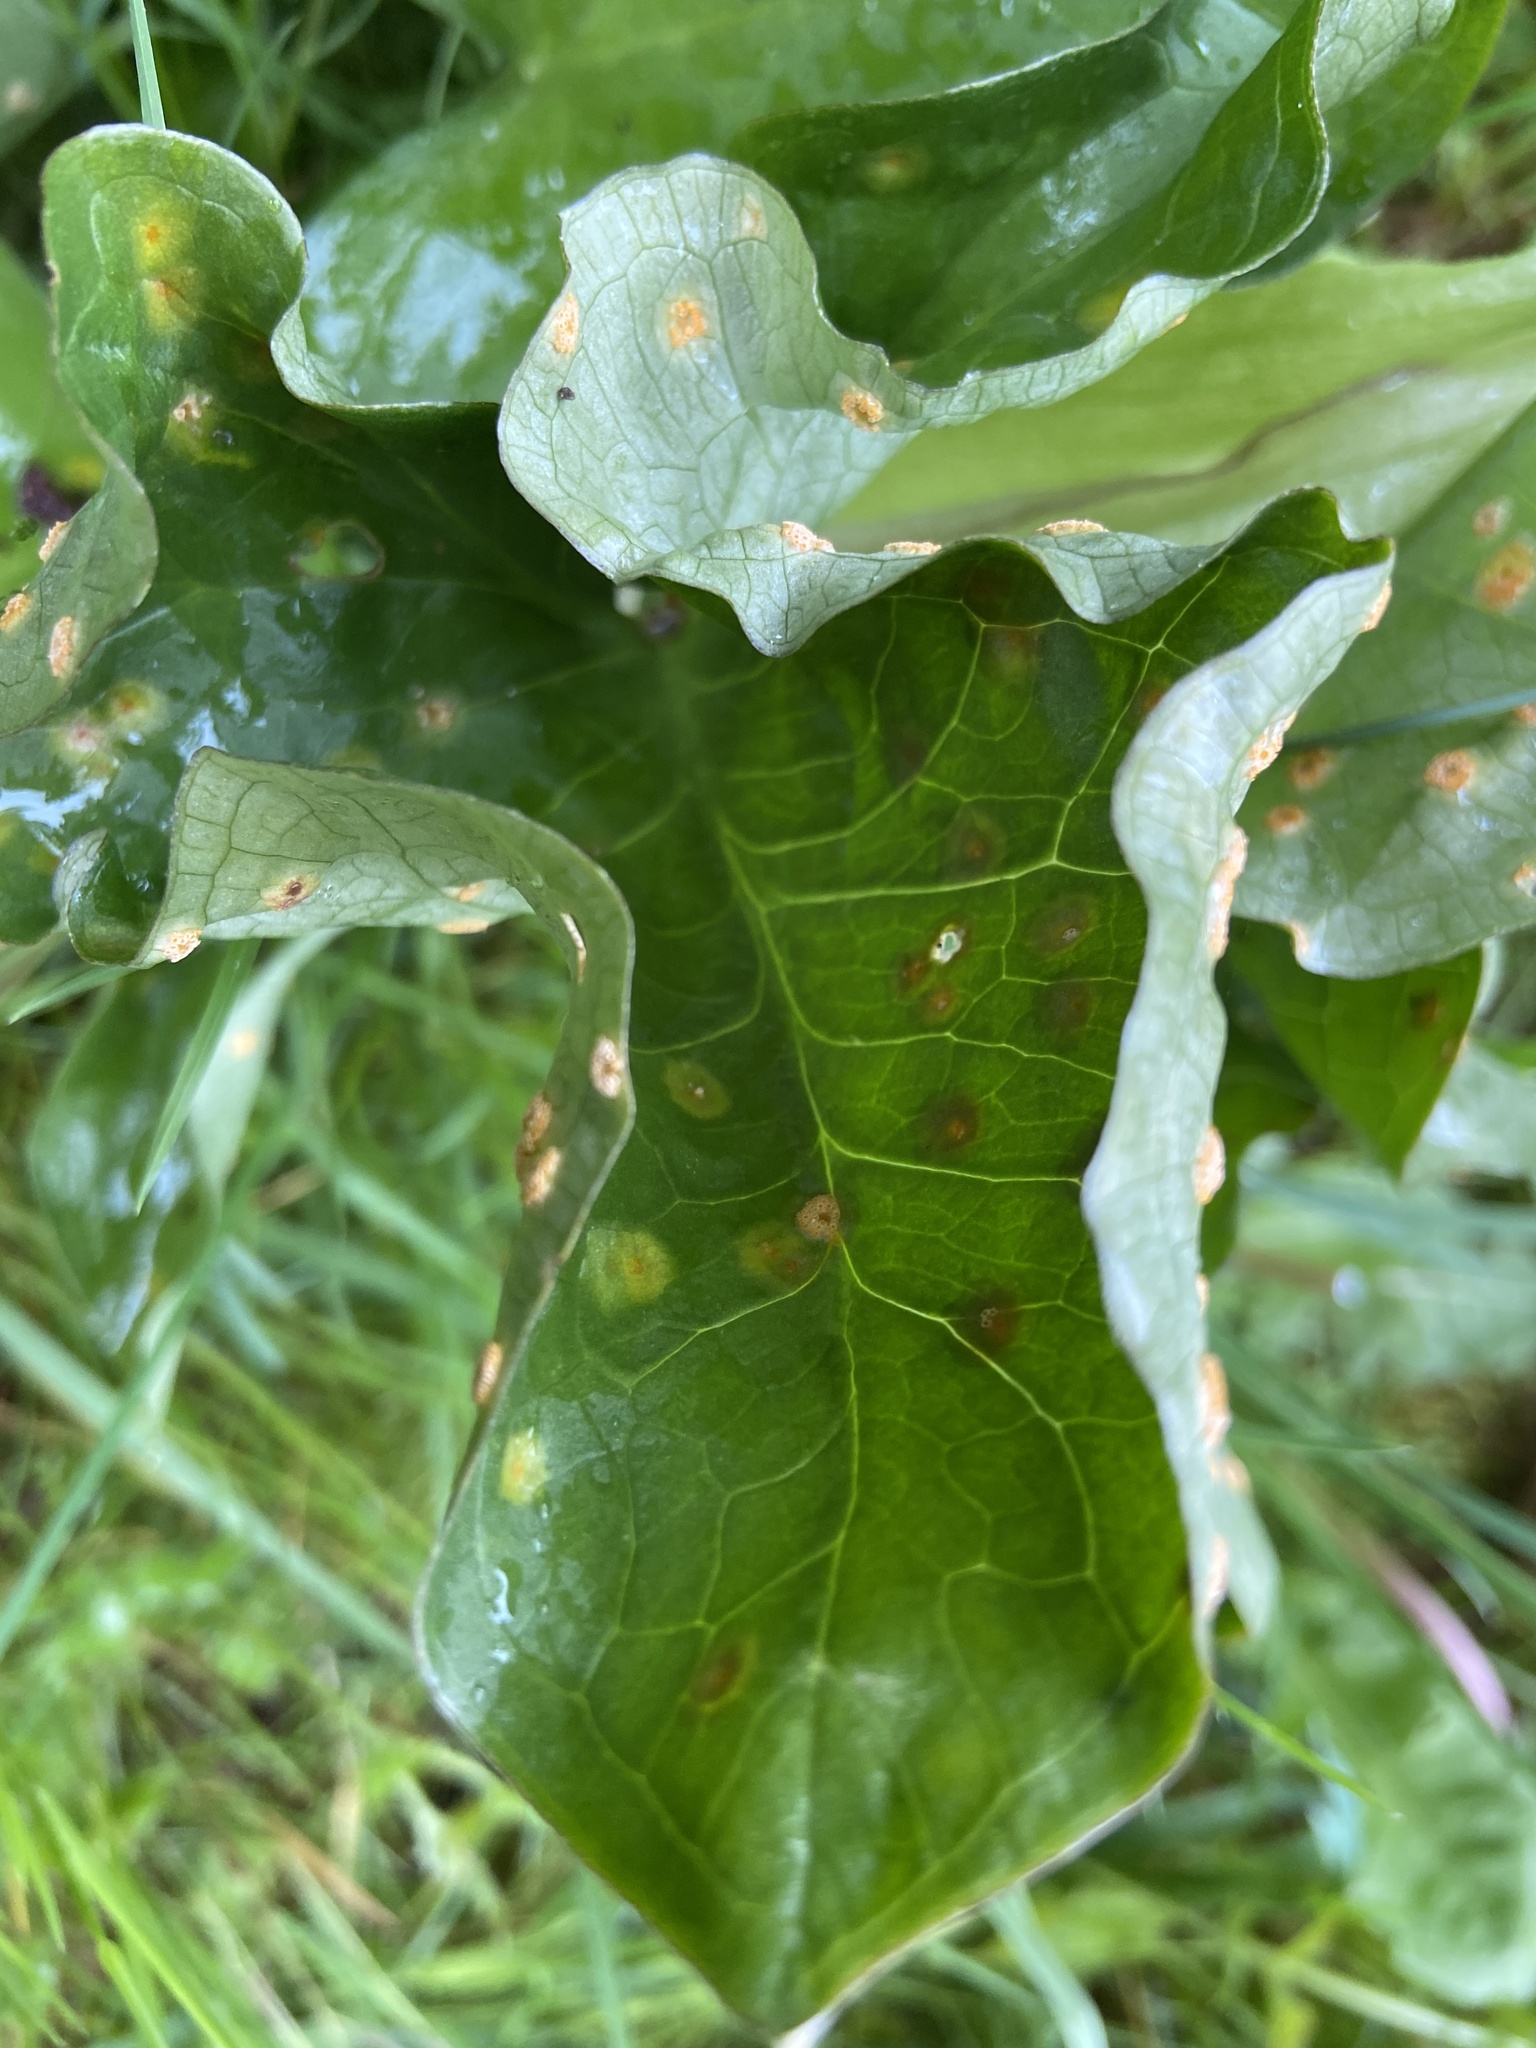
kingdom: Fungi
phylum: Basidiomycota
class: Pucciniomycetes
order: Pucciniales
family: Pucciniaceae
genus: Puccinia
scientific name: Puccinia sessilis
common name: Arum rust
